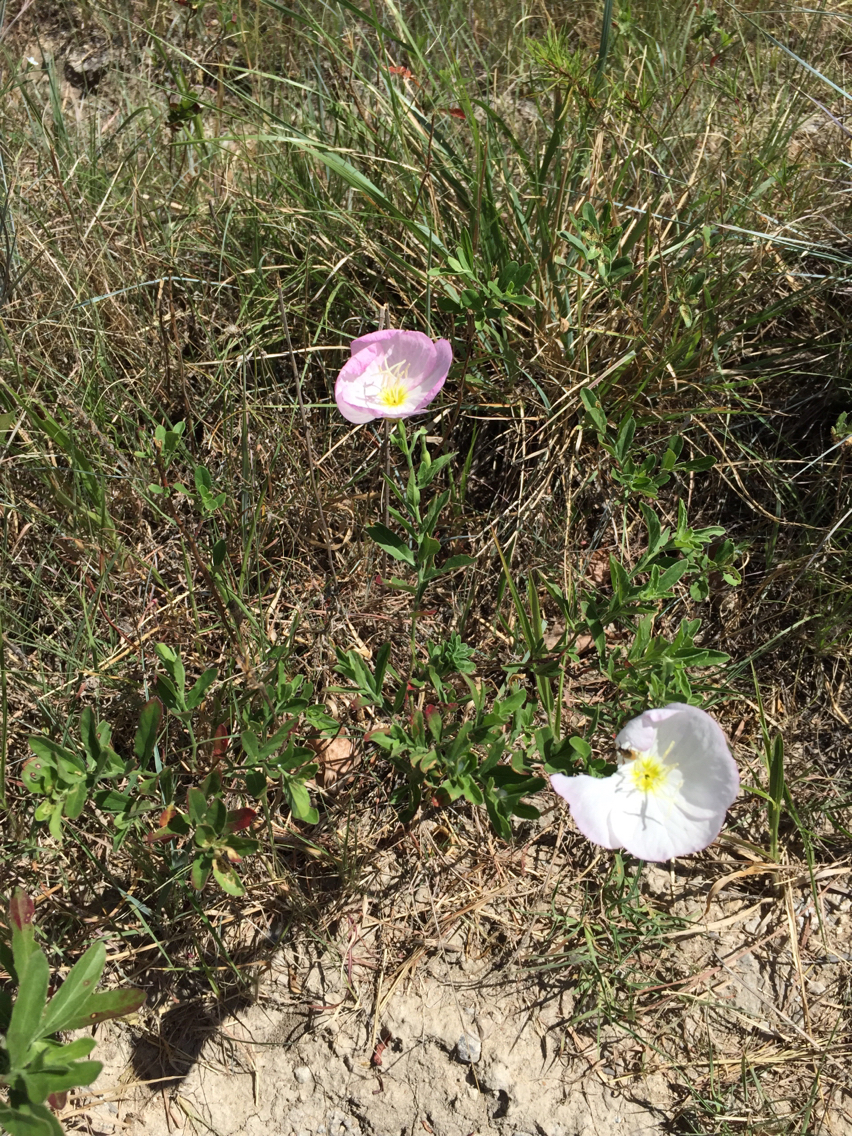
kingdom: Plantae
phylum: Tracheophyta
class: Magnoliopsida
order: Myrtales
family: Onagraceae
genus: Oenothera
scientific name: Oenothera speciosa
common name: White evening-primrose
